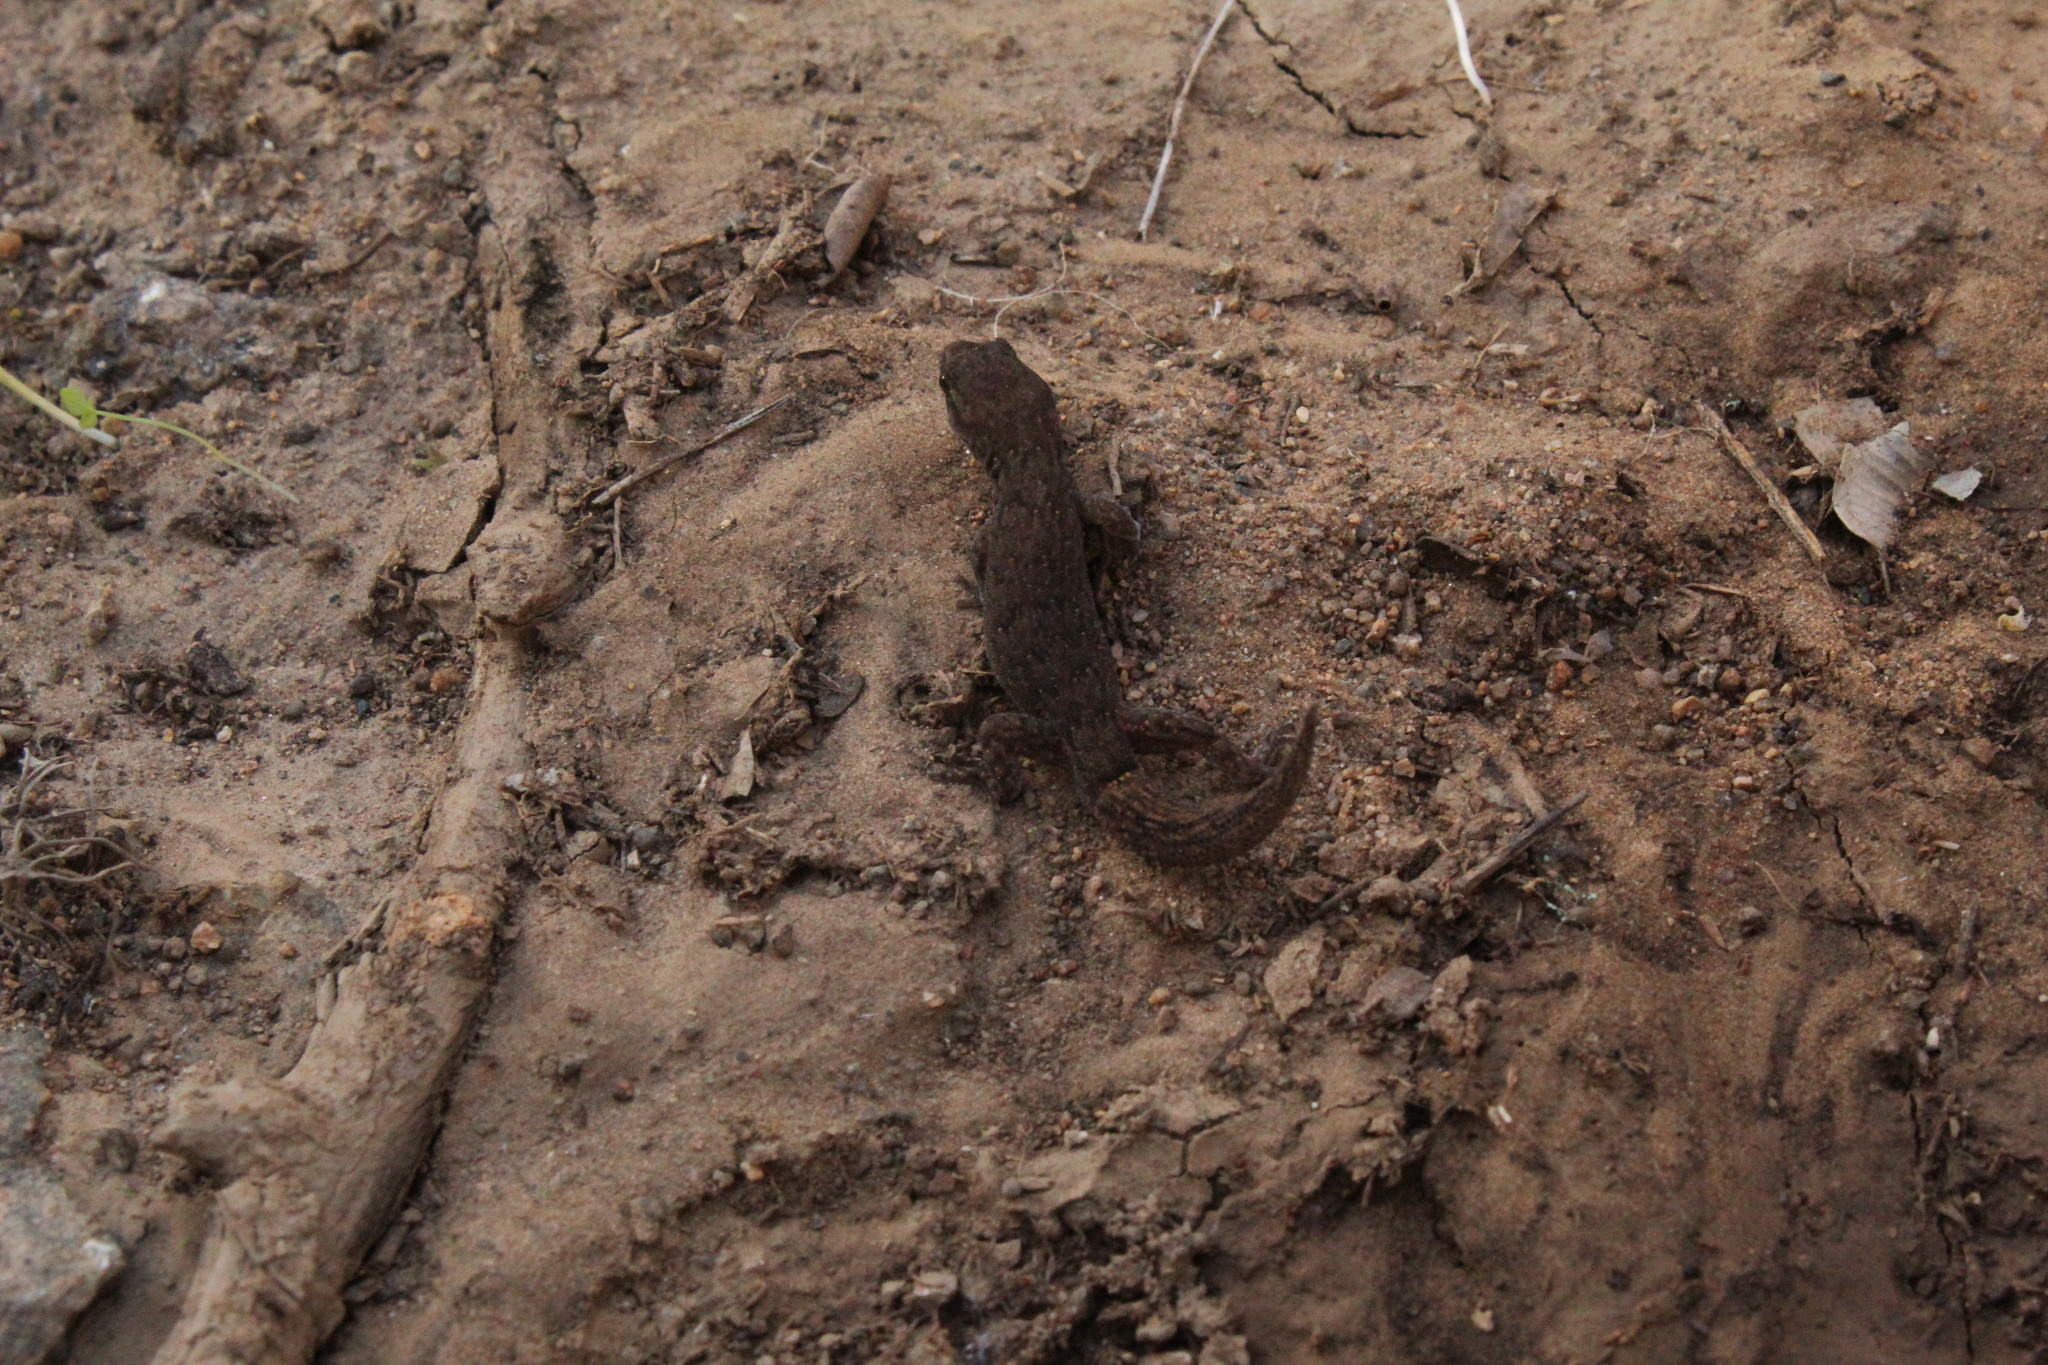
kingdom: Animalia
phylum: Chordata
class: Squamata
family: Phyllodactylidae
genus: Garthia
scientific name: Garthia gaudichaudii
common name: Chilean marked gecko
